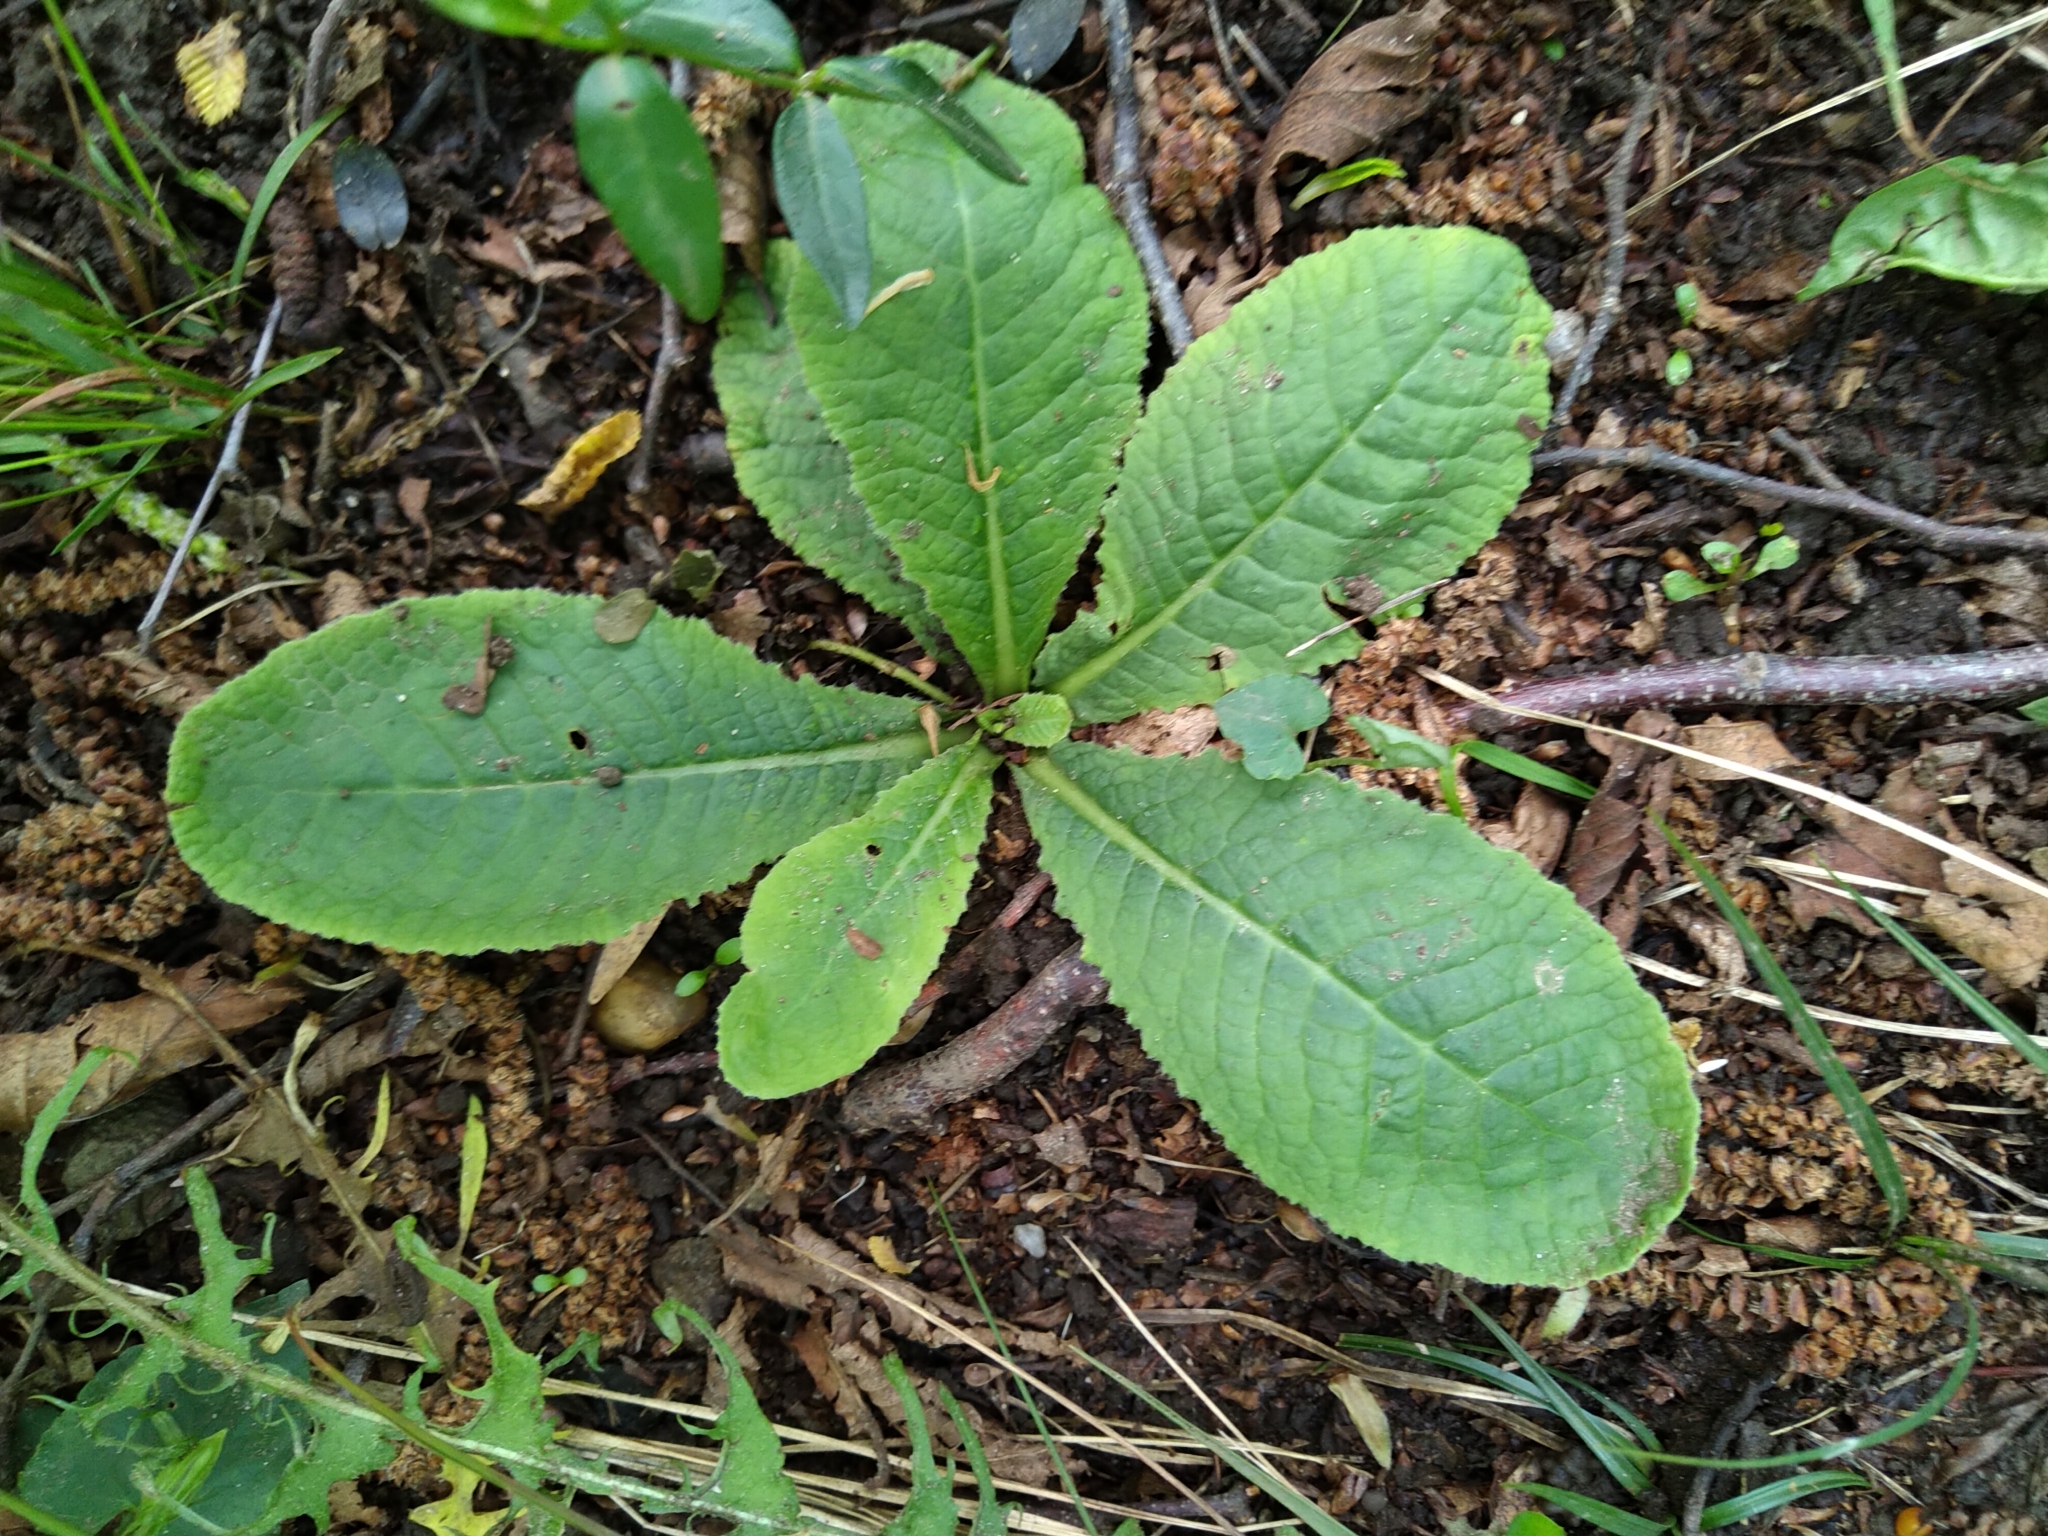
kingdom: Plantae
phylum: Tracheophyta
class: Magnoliopsida
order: Ericales
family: Primulaceae
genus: Primula
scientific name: Primula vulgaris
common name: Primrose
